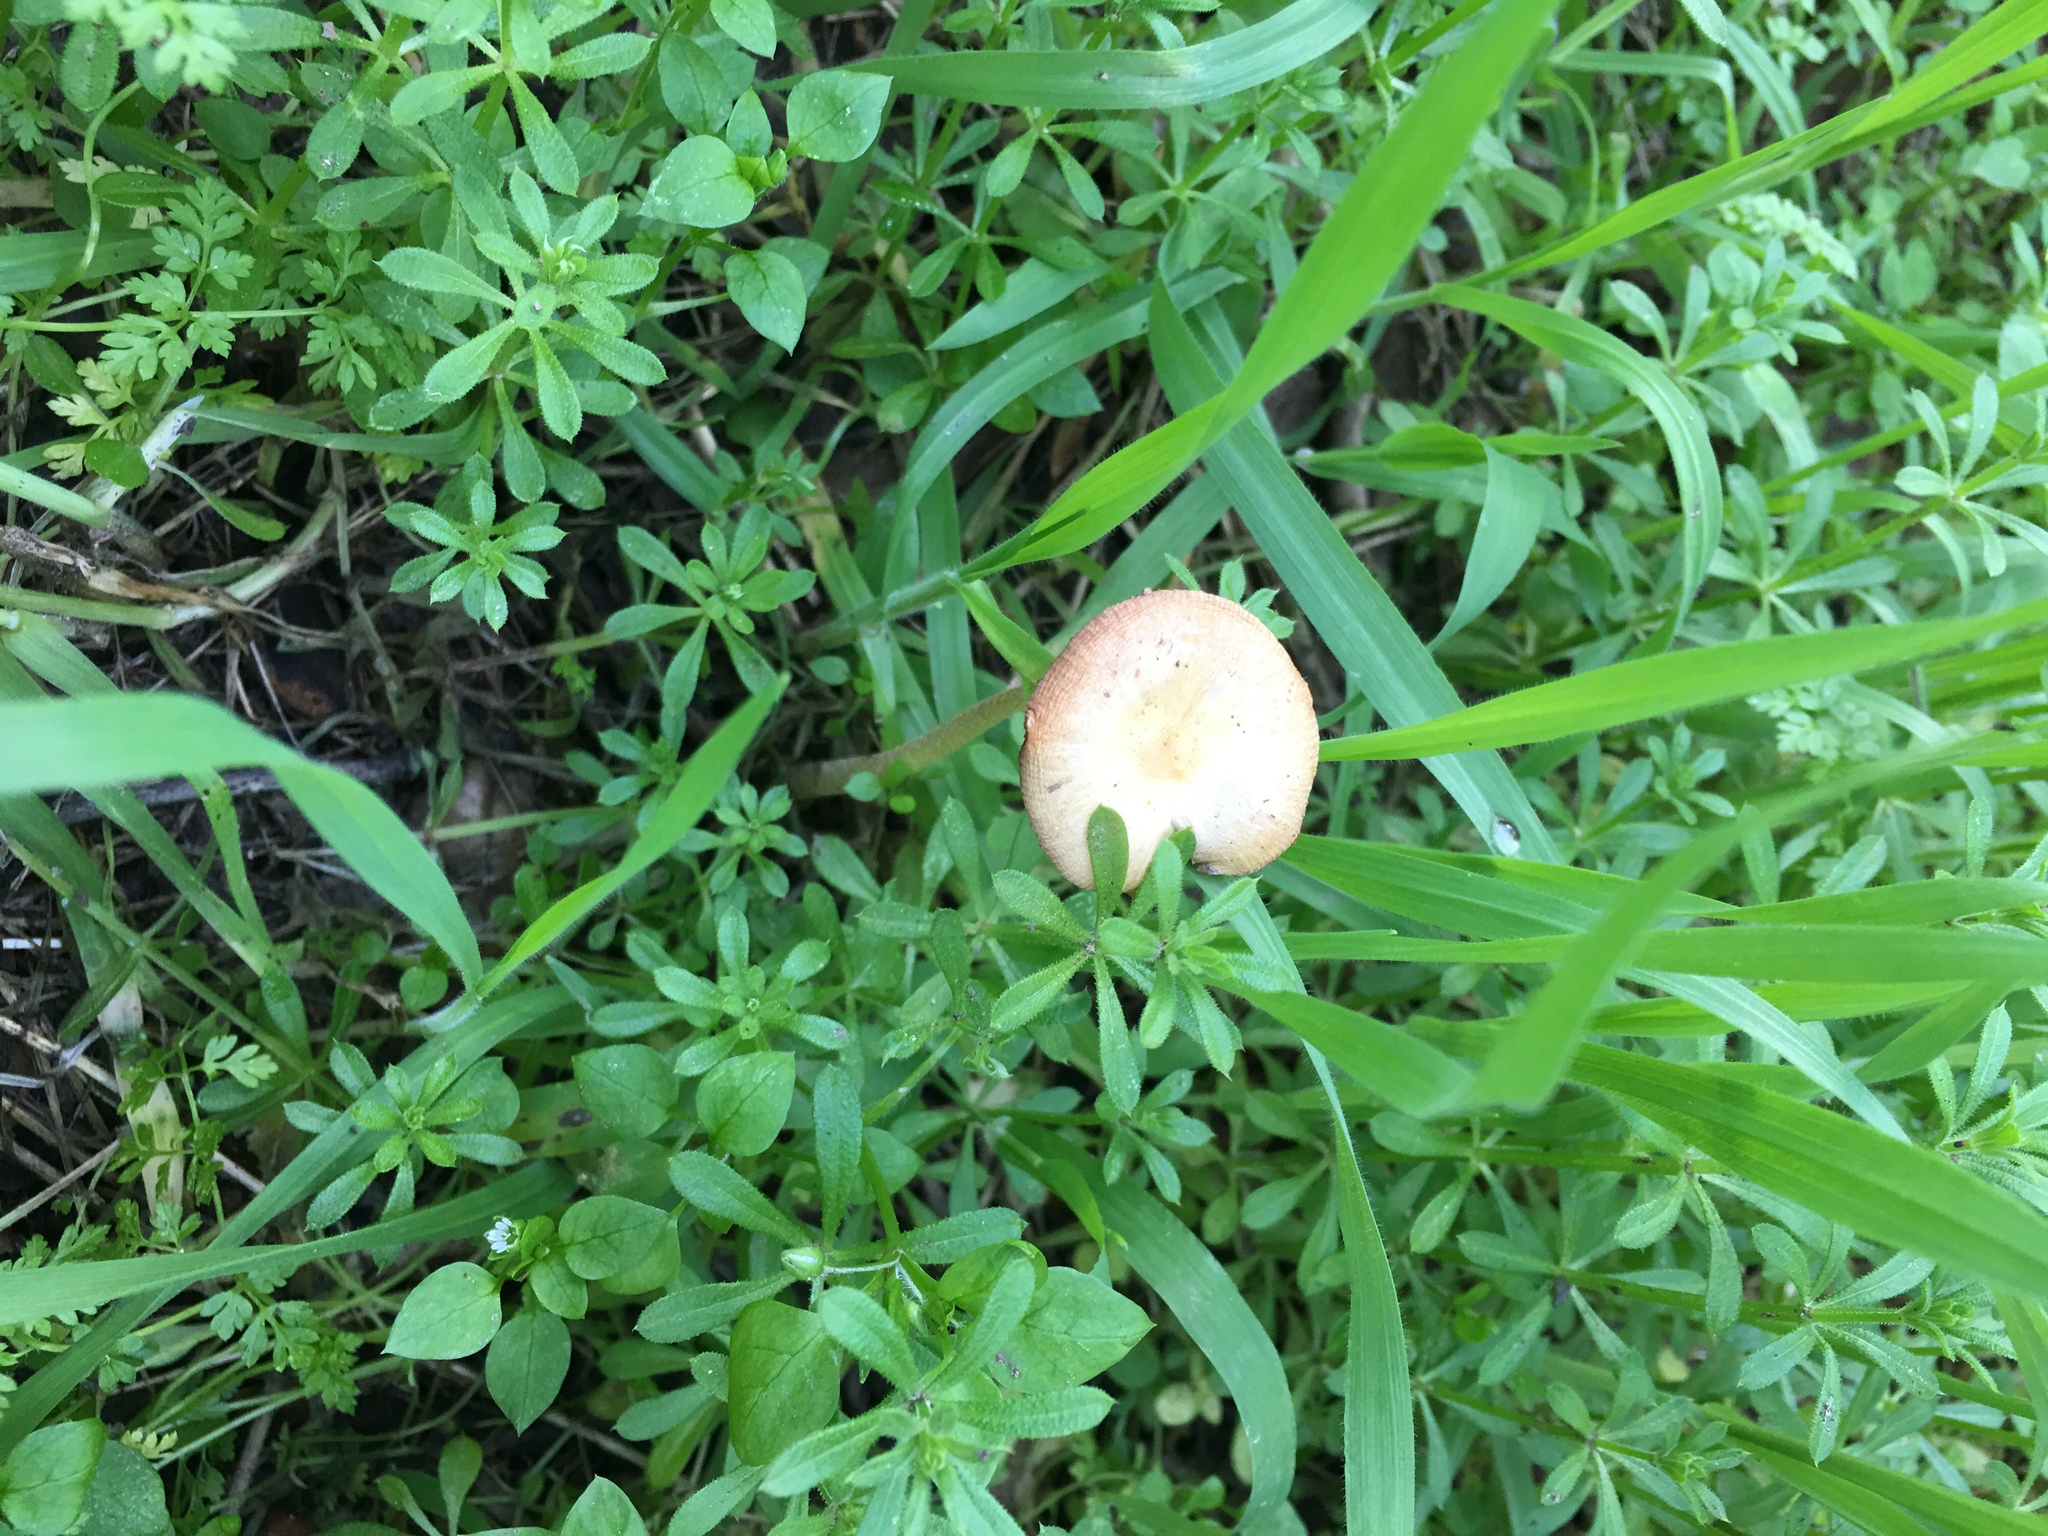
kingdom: Fungi
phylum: Basidiomycota
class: Agaricomycetes
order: Agaricales
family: Bolbitiaceae
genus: Bolbitius
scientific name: Bolbitius titubans
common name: Yellow fieldcap
